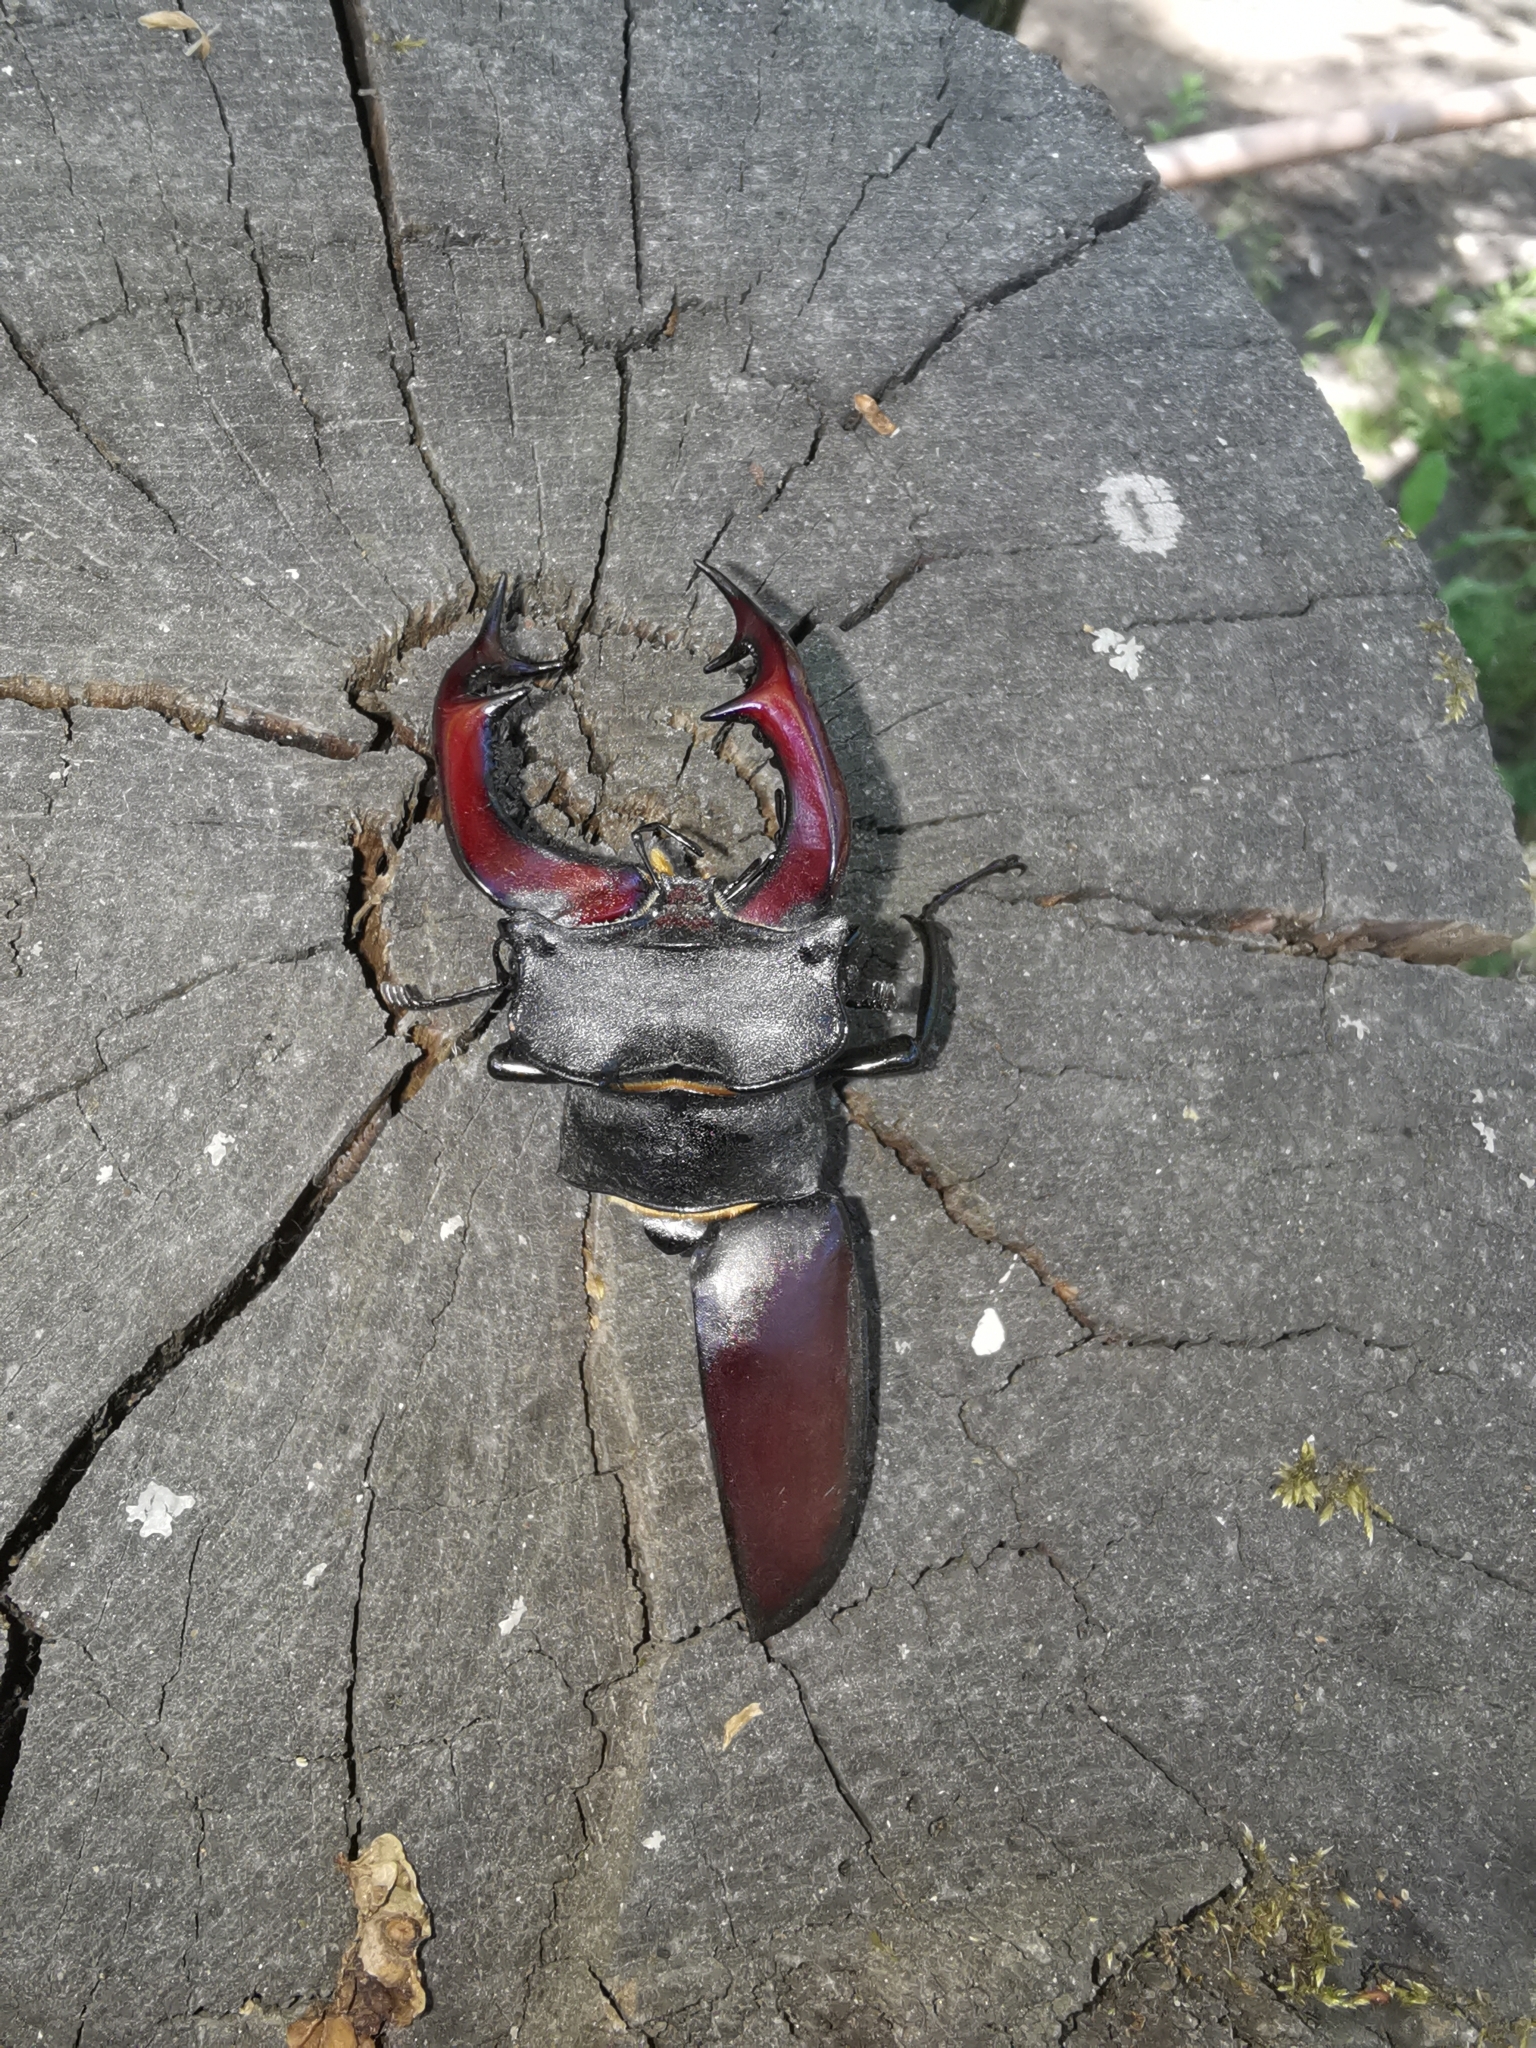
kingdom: Animalia
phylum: Arthropoda
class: Insecta
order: Coleoptera
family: Lucanidae
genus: Lucanus
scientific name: Lucanus cervus
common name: Stag beetle
